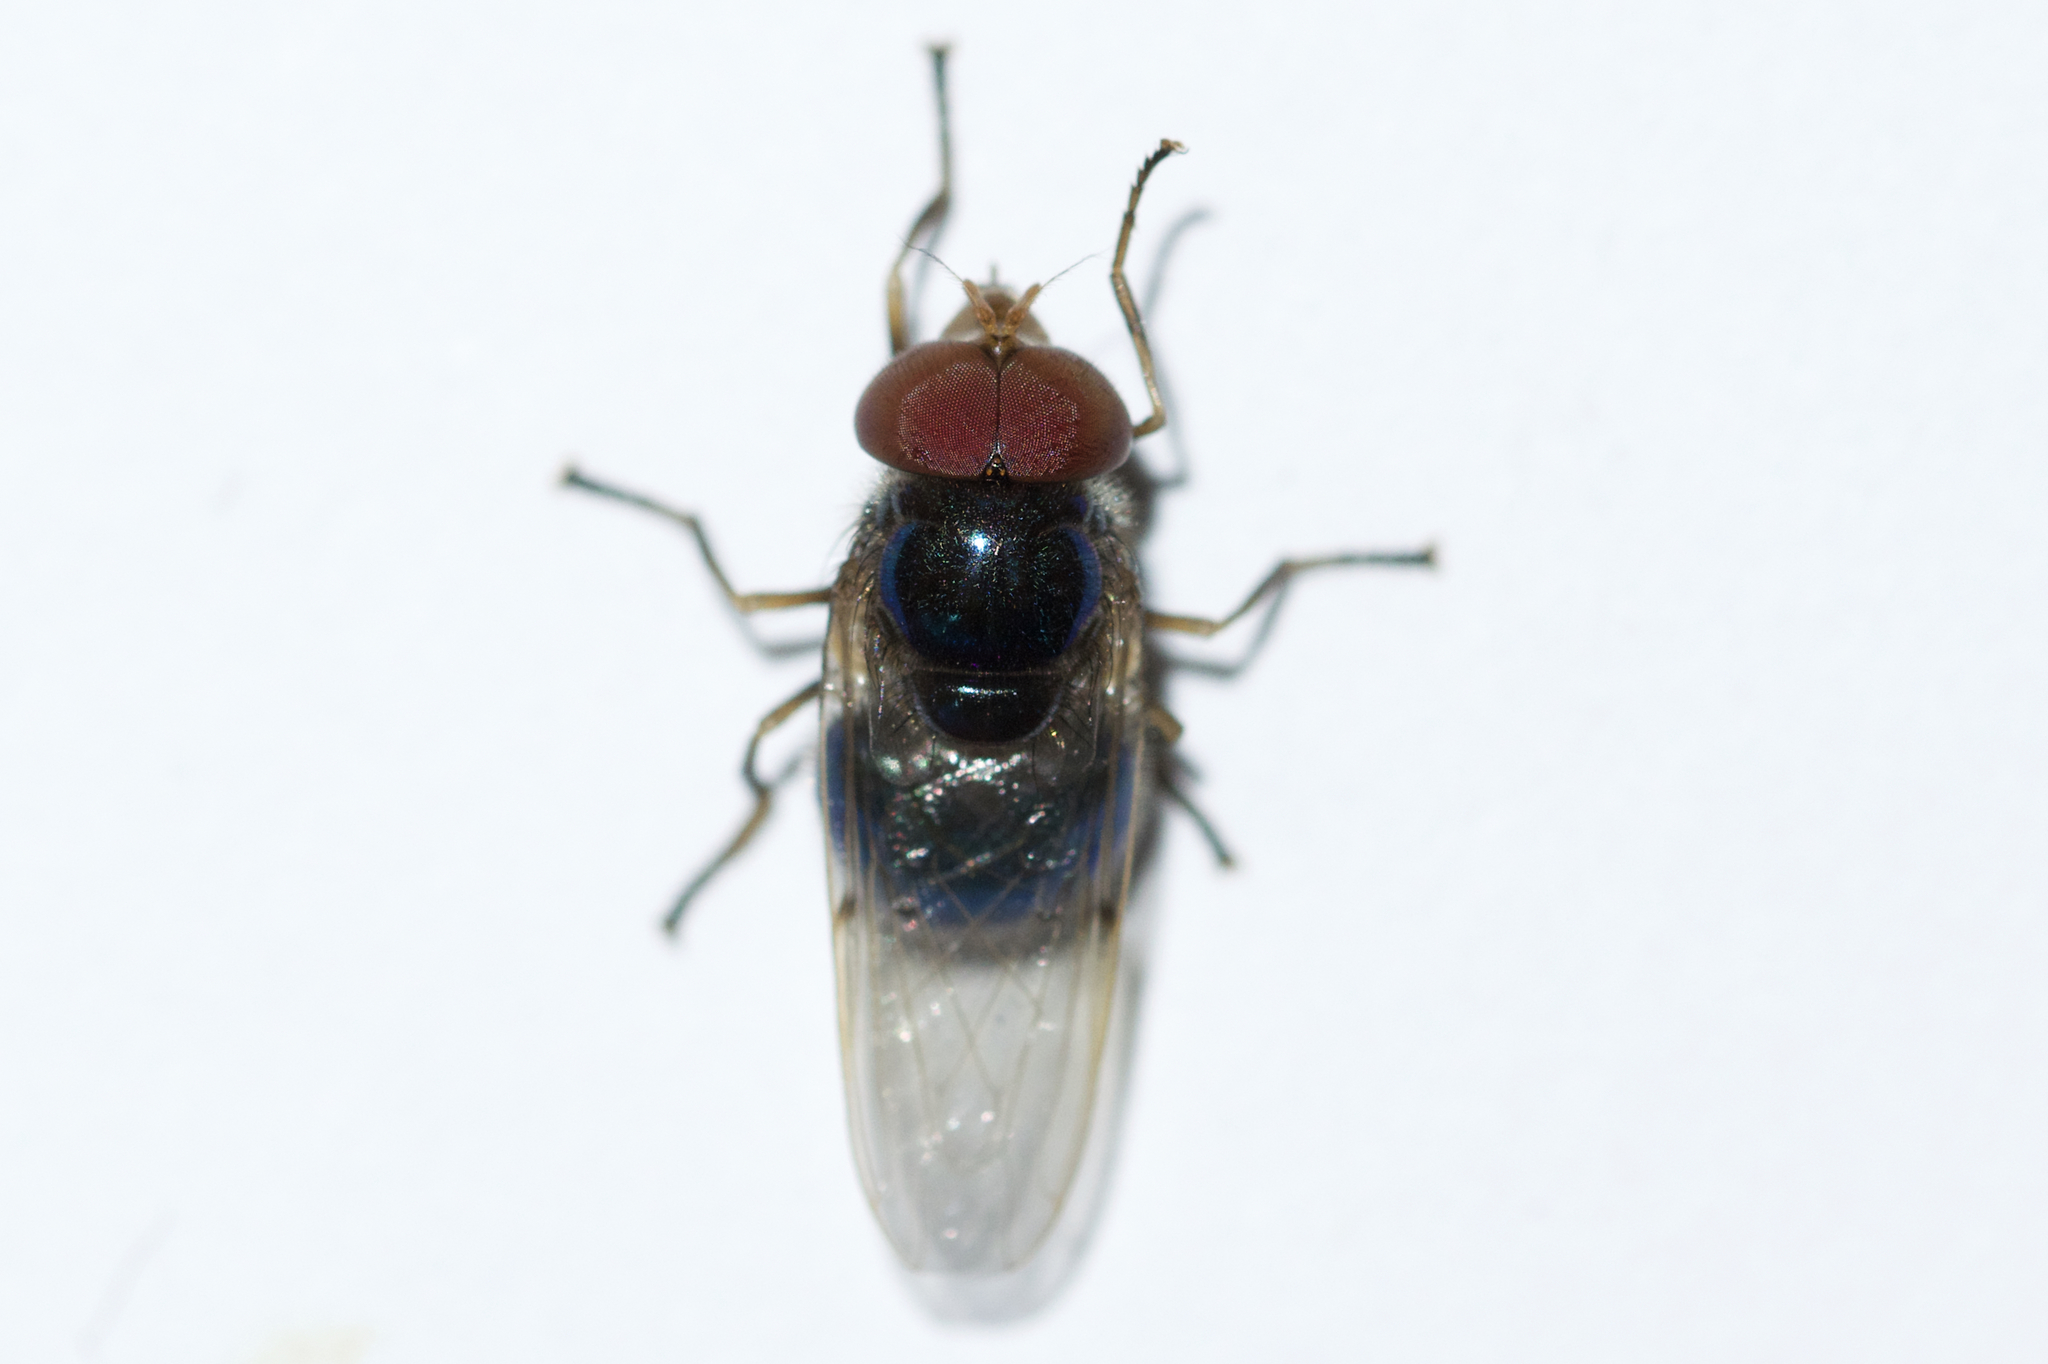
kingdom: Animalia
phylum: Arthropoda
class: Insecta
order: Diptera
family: Syrphidae
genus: Copestylum
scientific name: Copestylum vesicularium
